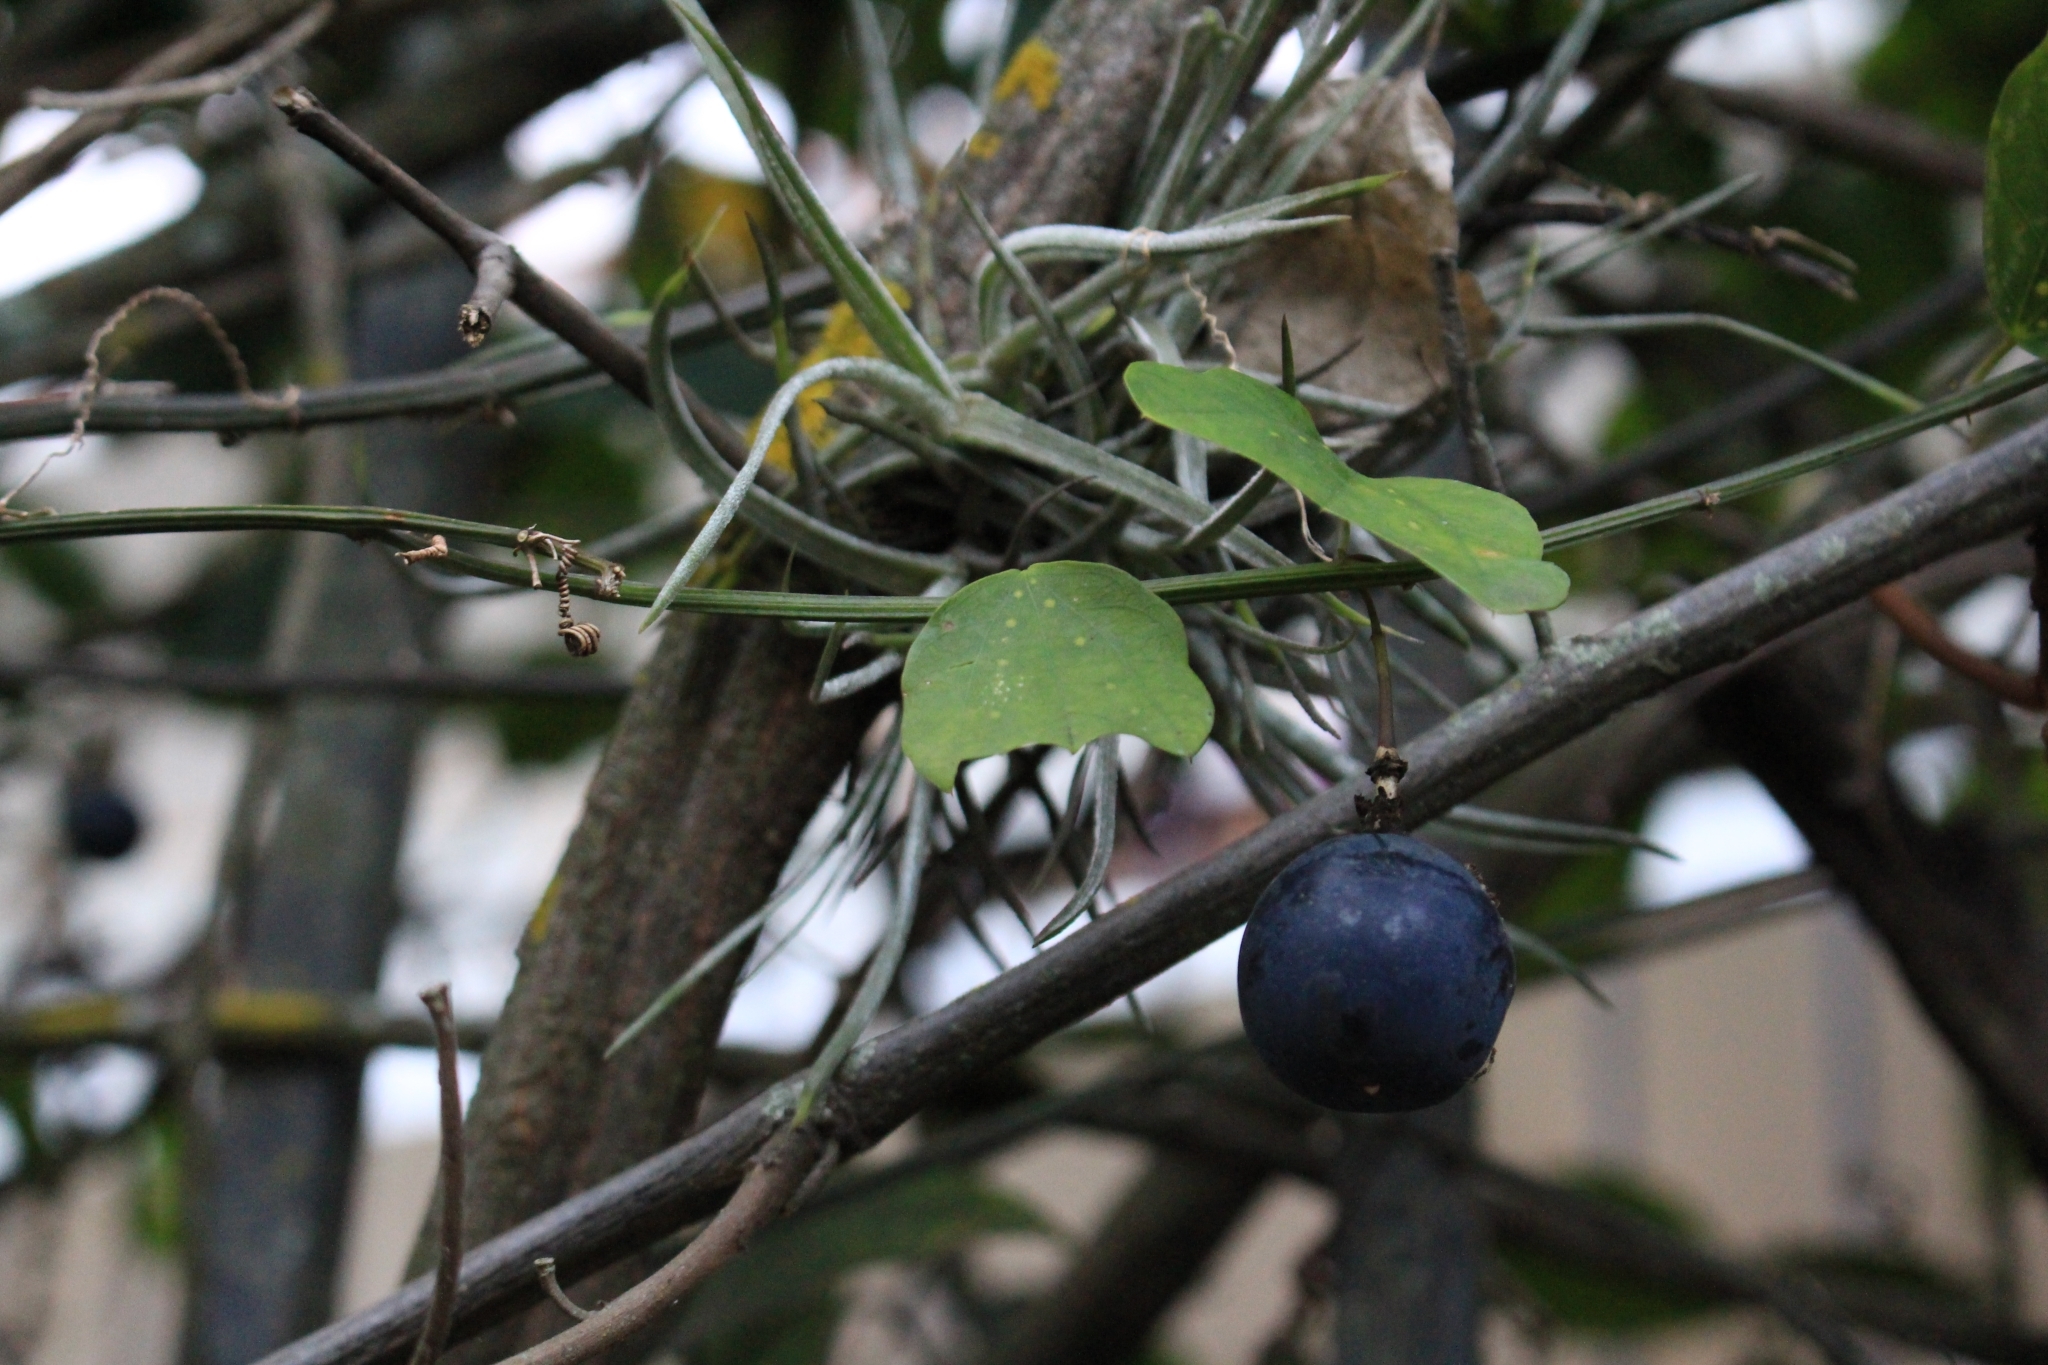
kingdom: Plantae
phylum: Tracheophyta
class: Magnoliopsida
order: Malpighiales
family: Passifloraceae
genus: Passiflora
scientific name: Passiflora biflora
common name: Twoflower passionflower
